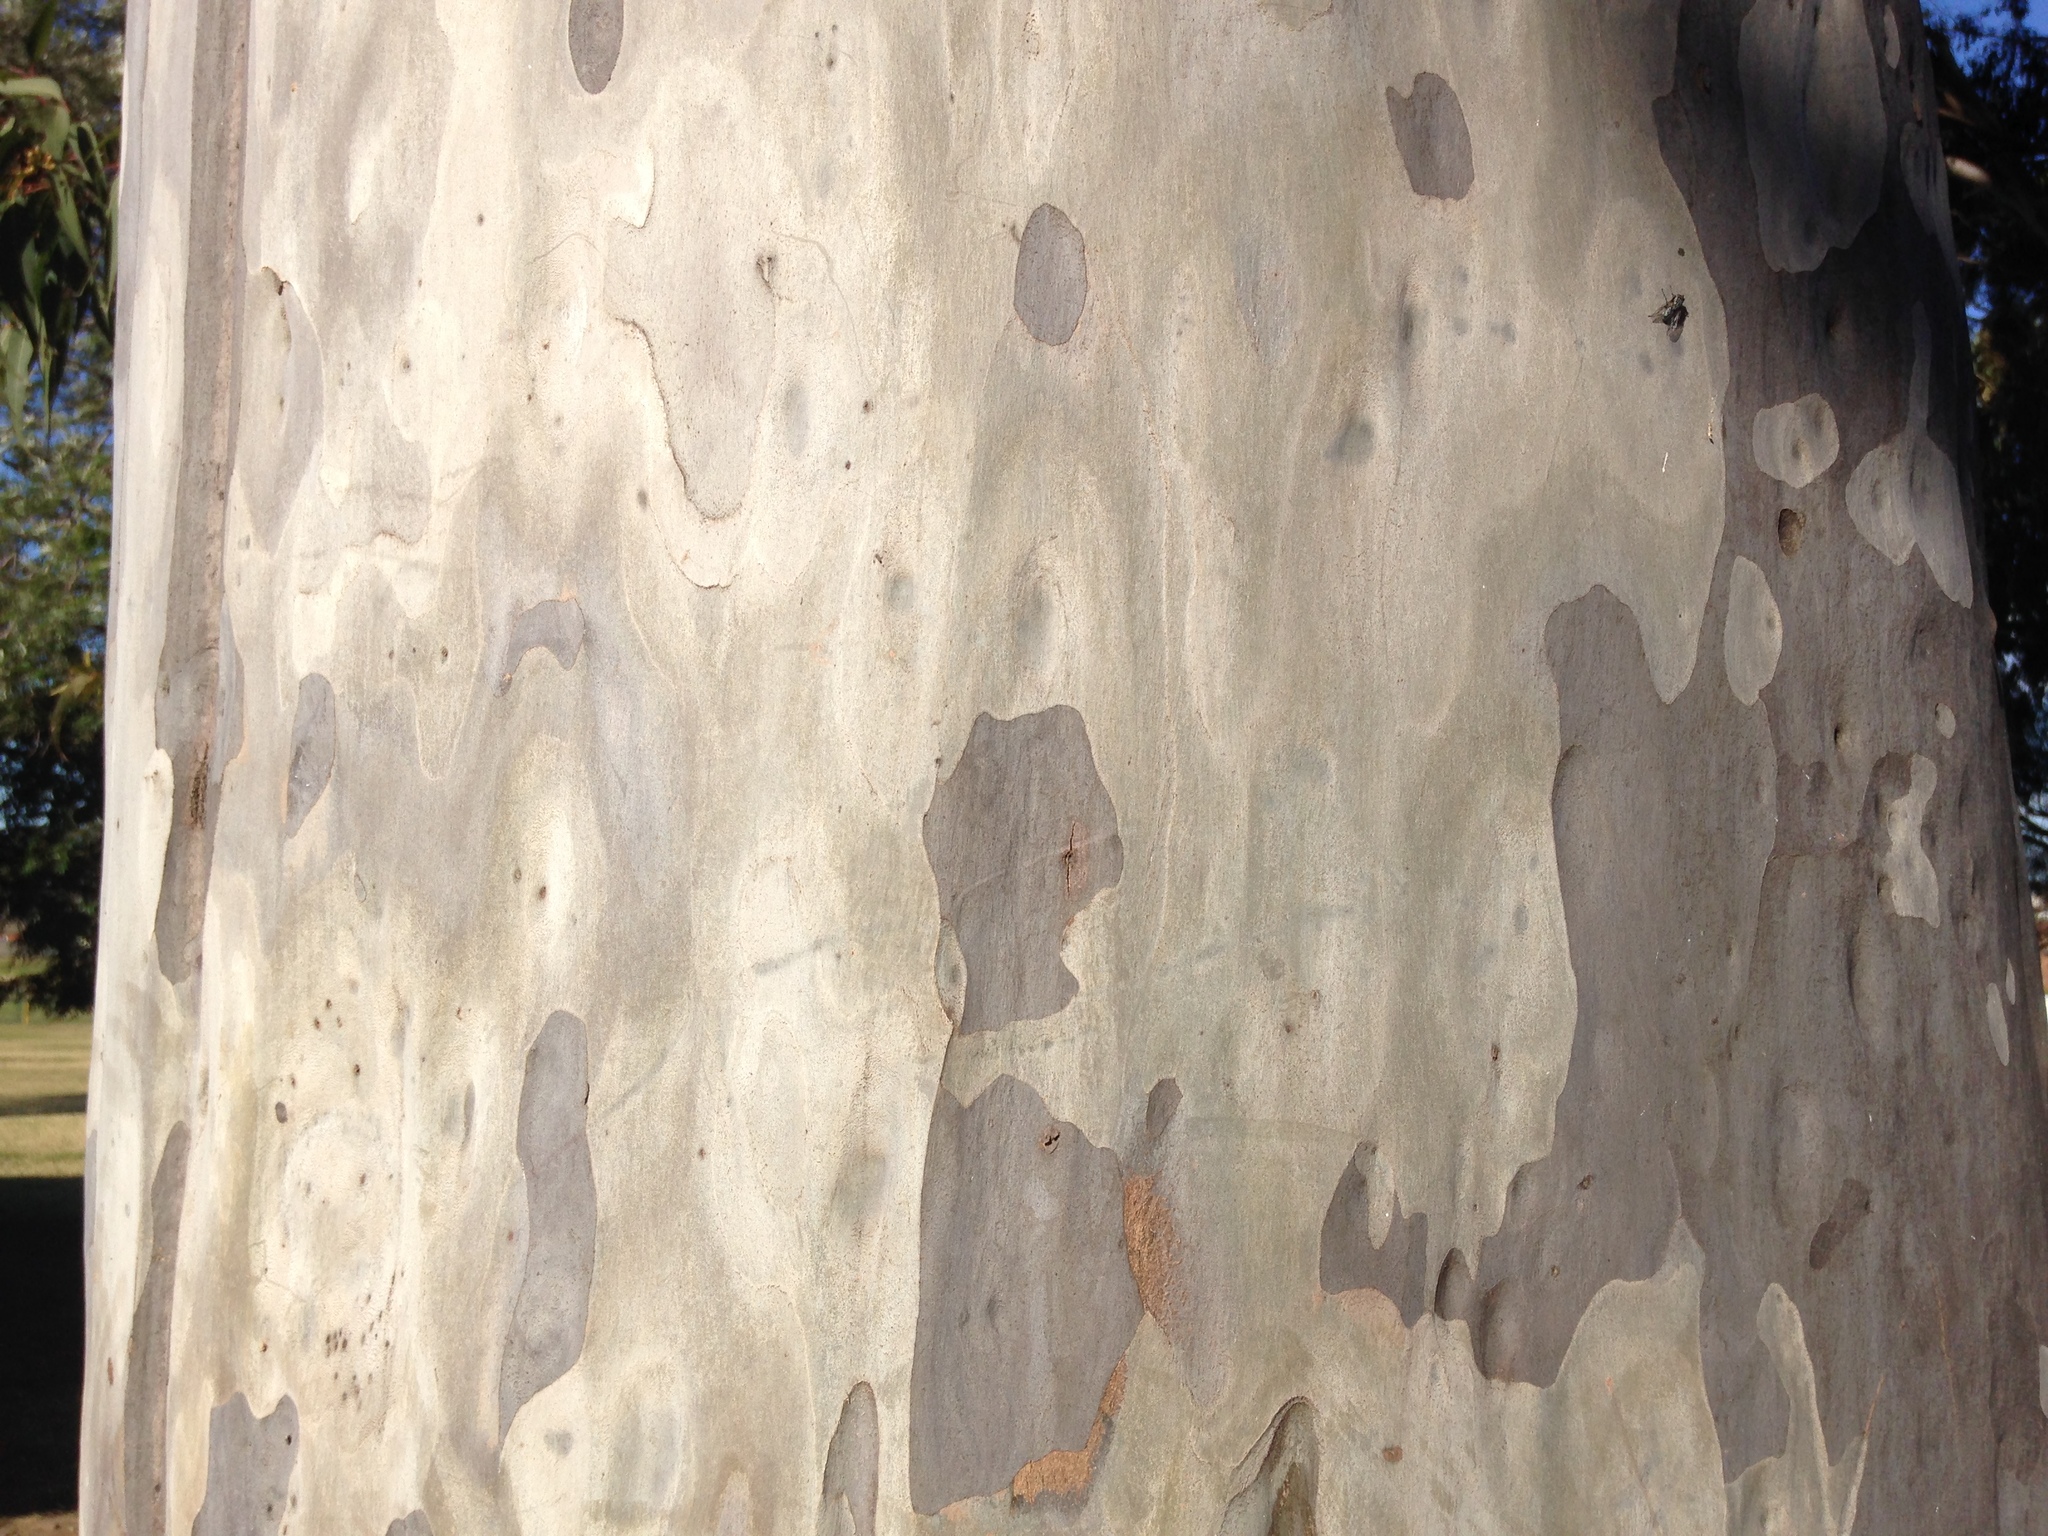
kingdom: Plantae
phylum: Tracheophyta
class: Magnoliopsida
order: Myrtales
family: Myrtaceae
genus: Corymbia
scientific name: Corymbia maculata
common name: Spotted gum
